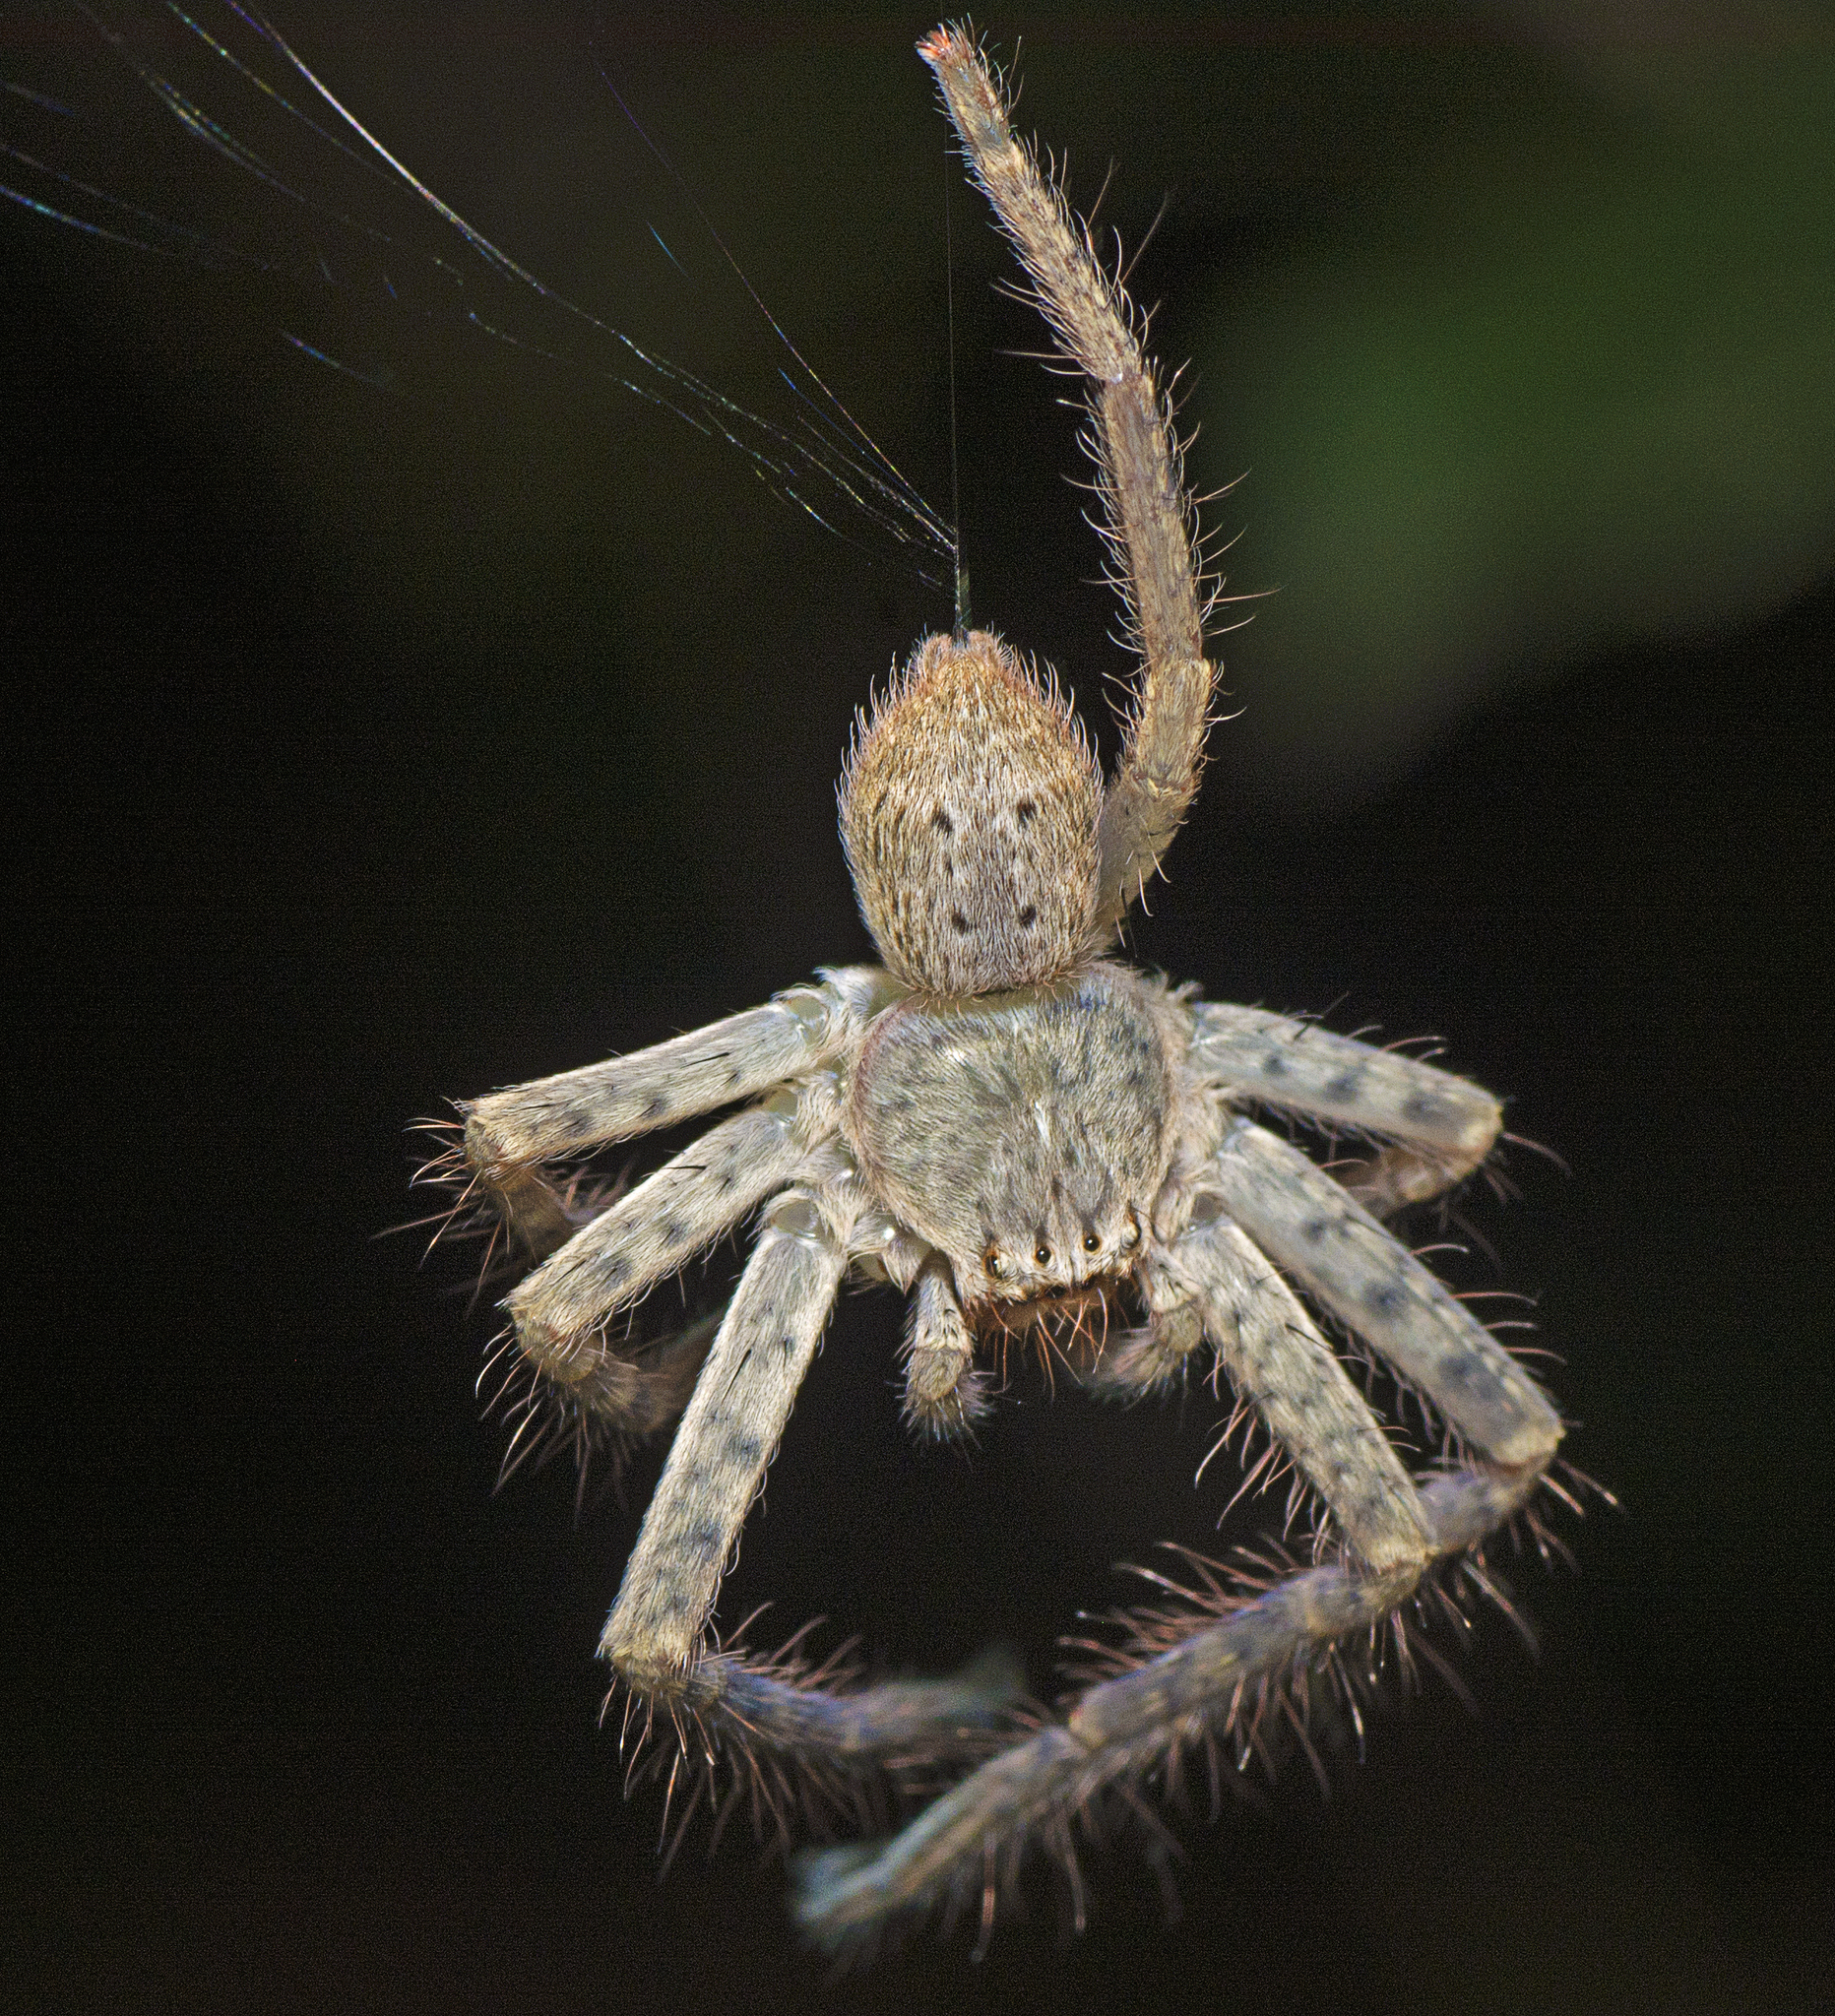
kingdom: Animalia
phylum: Arthropoda
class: Arachnida
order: Araneae
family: Sparassidae
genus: Isopeda
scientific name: Isopeda queenslandensis
